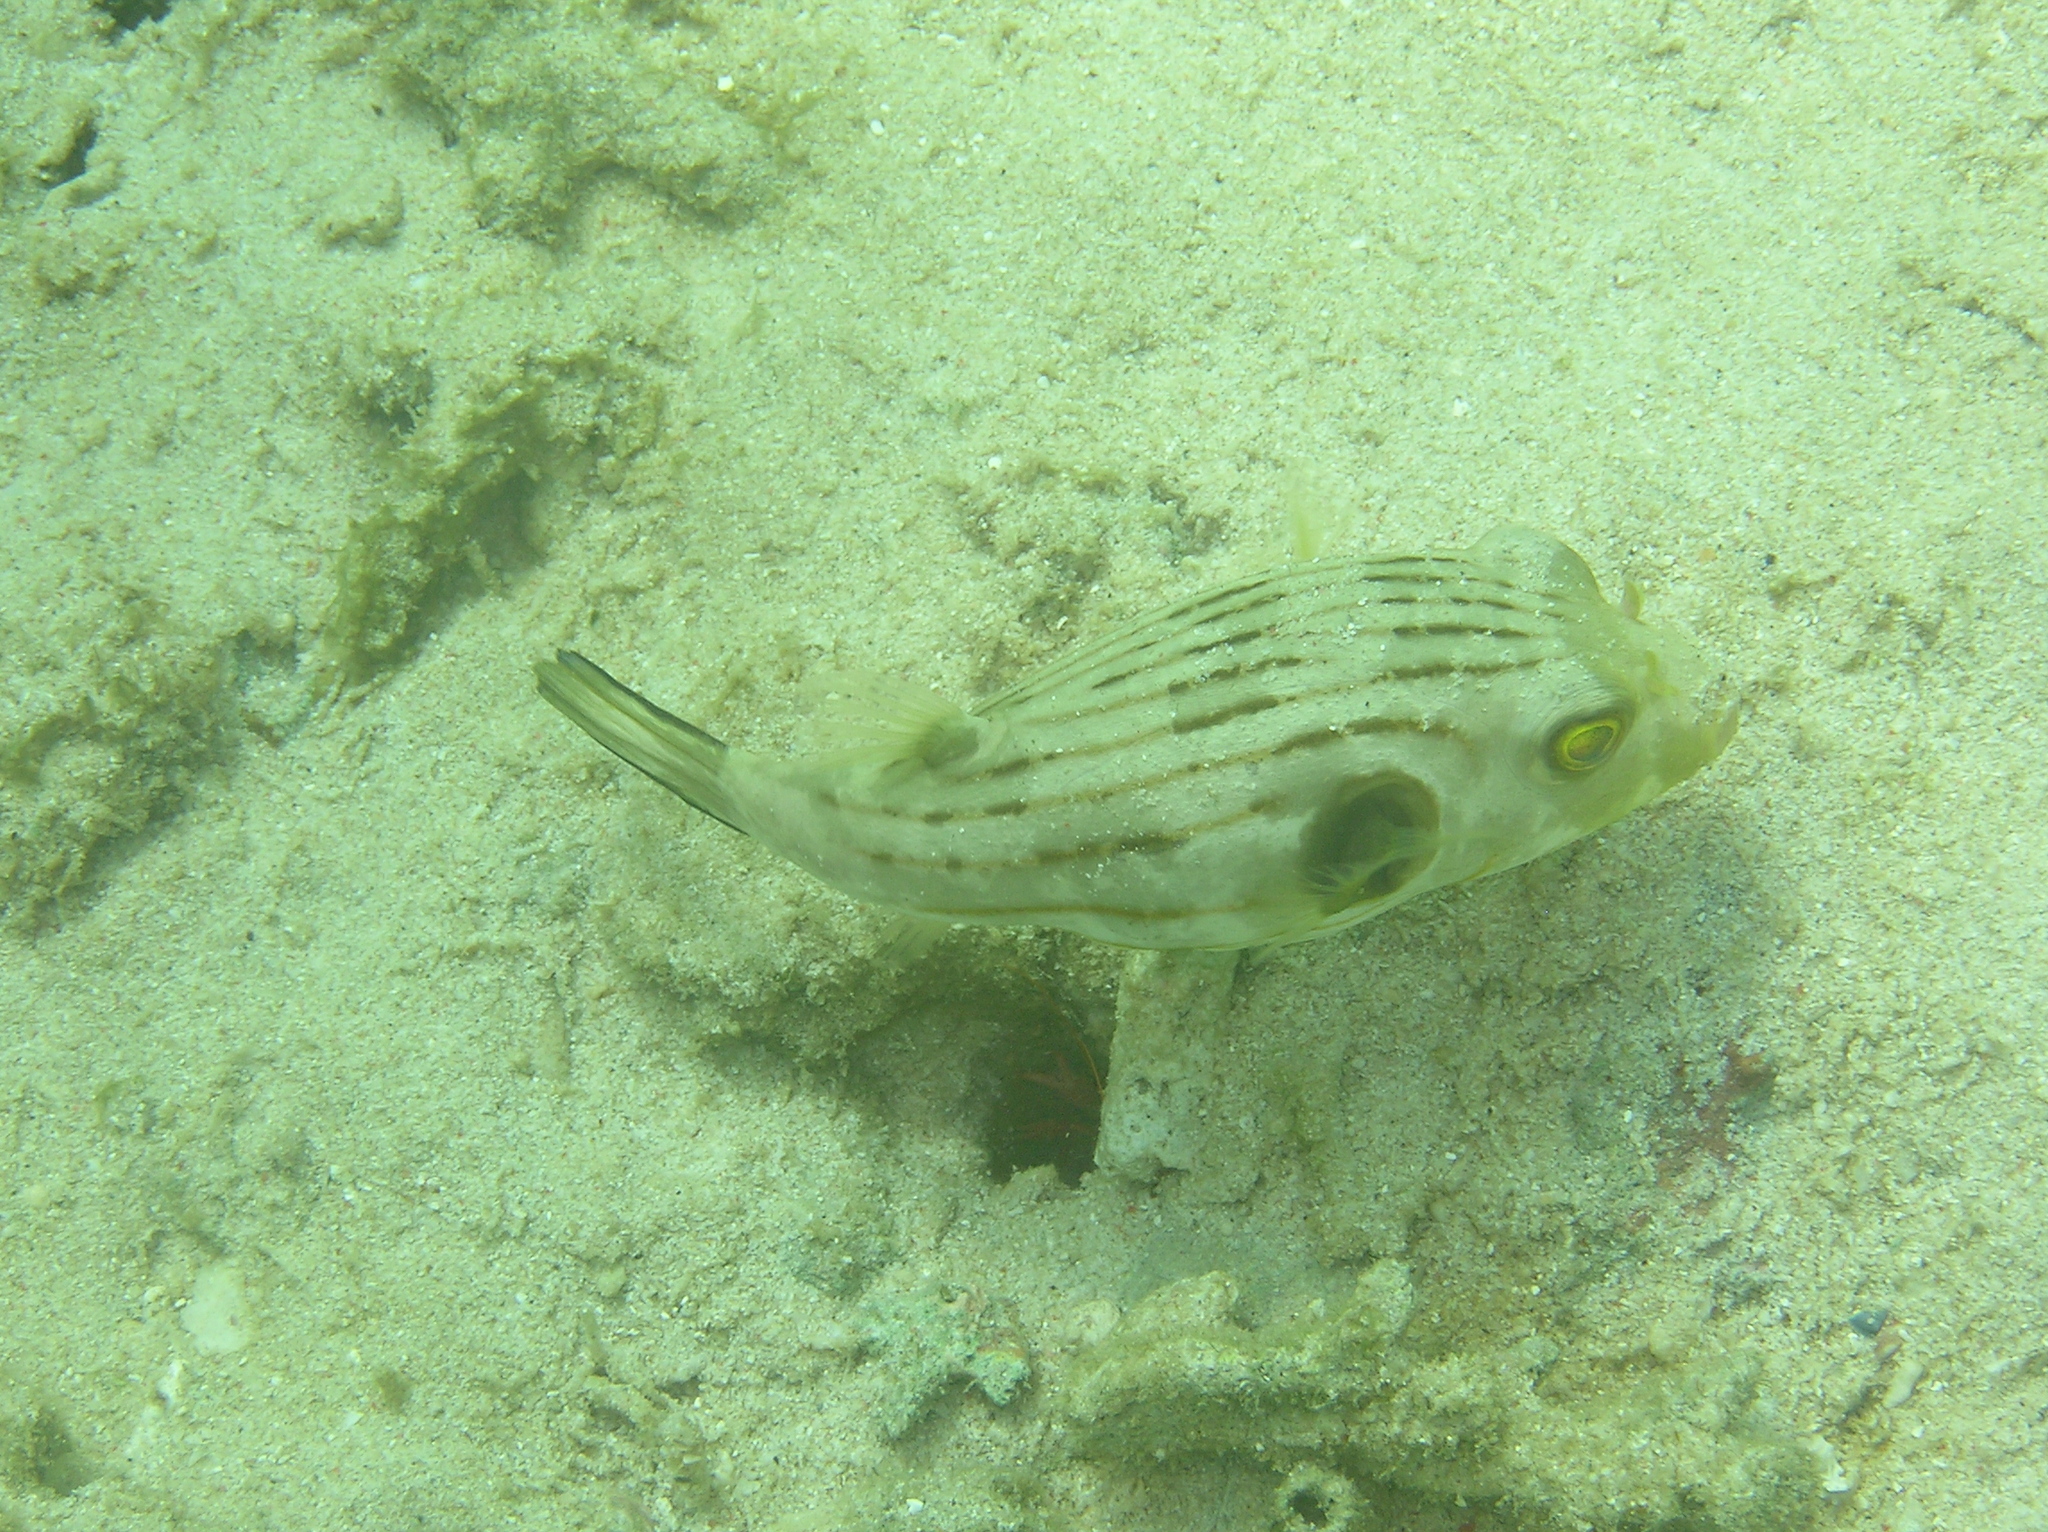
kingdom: Animalia
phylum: Chordata
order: Tetraodontiformes
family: Tetraodontidae
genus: Arothron
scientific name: Arothron manilensis
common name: Narrow-lined puffer
